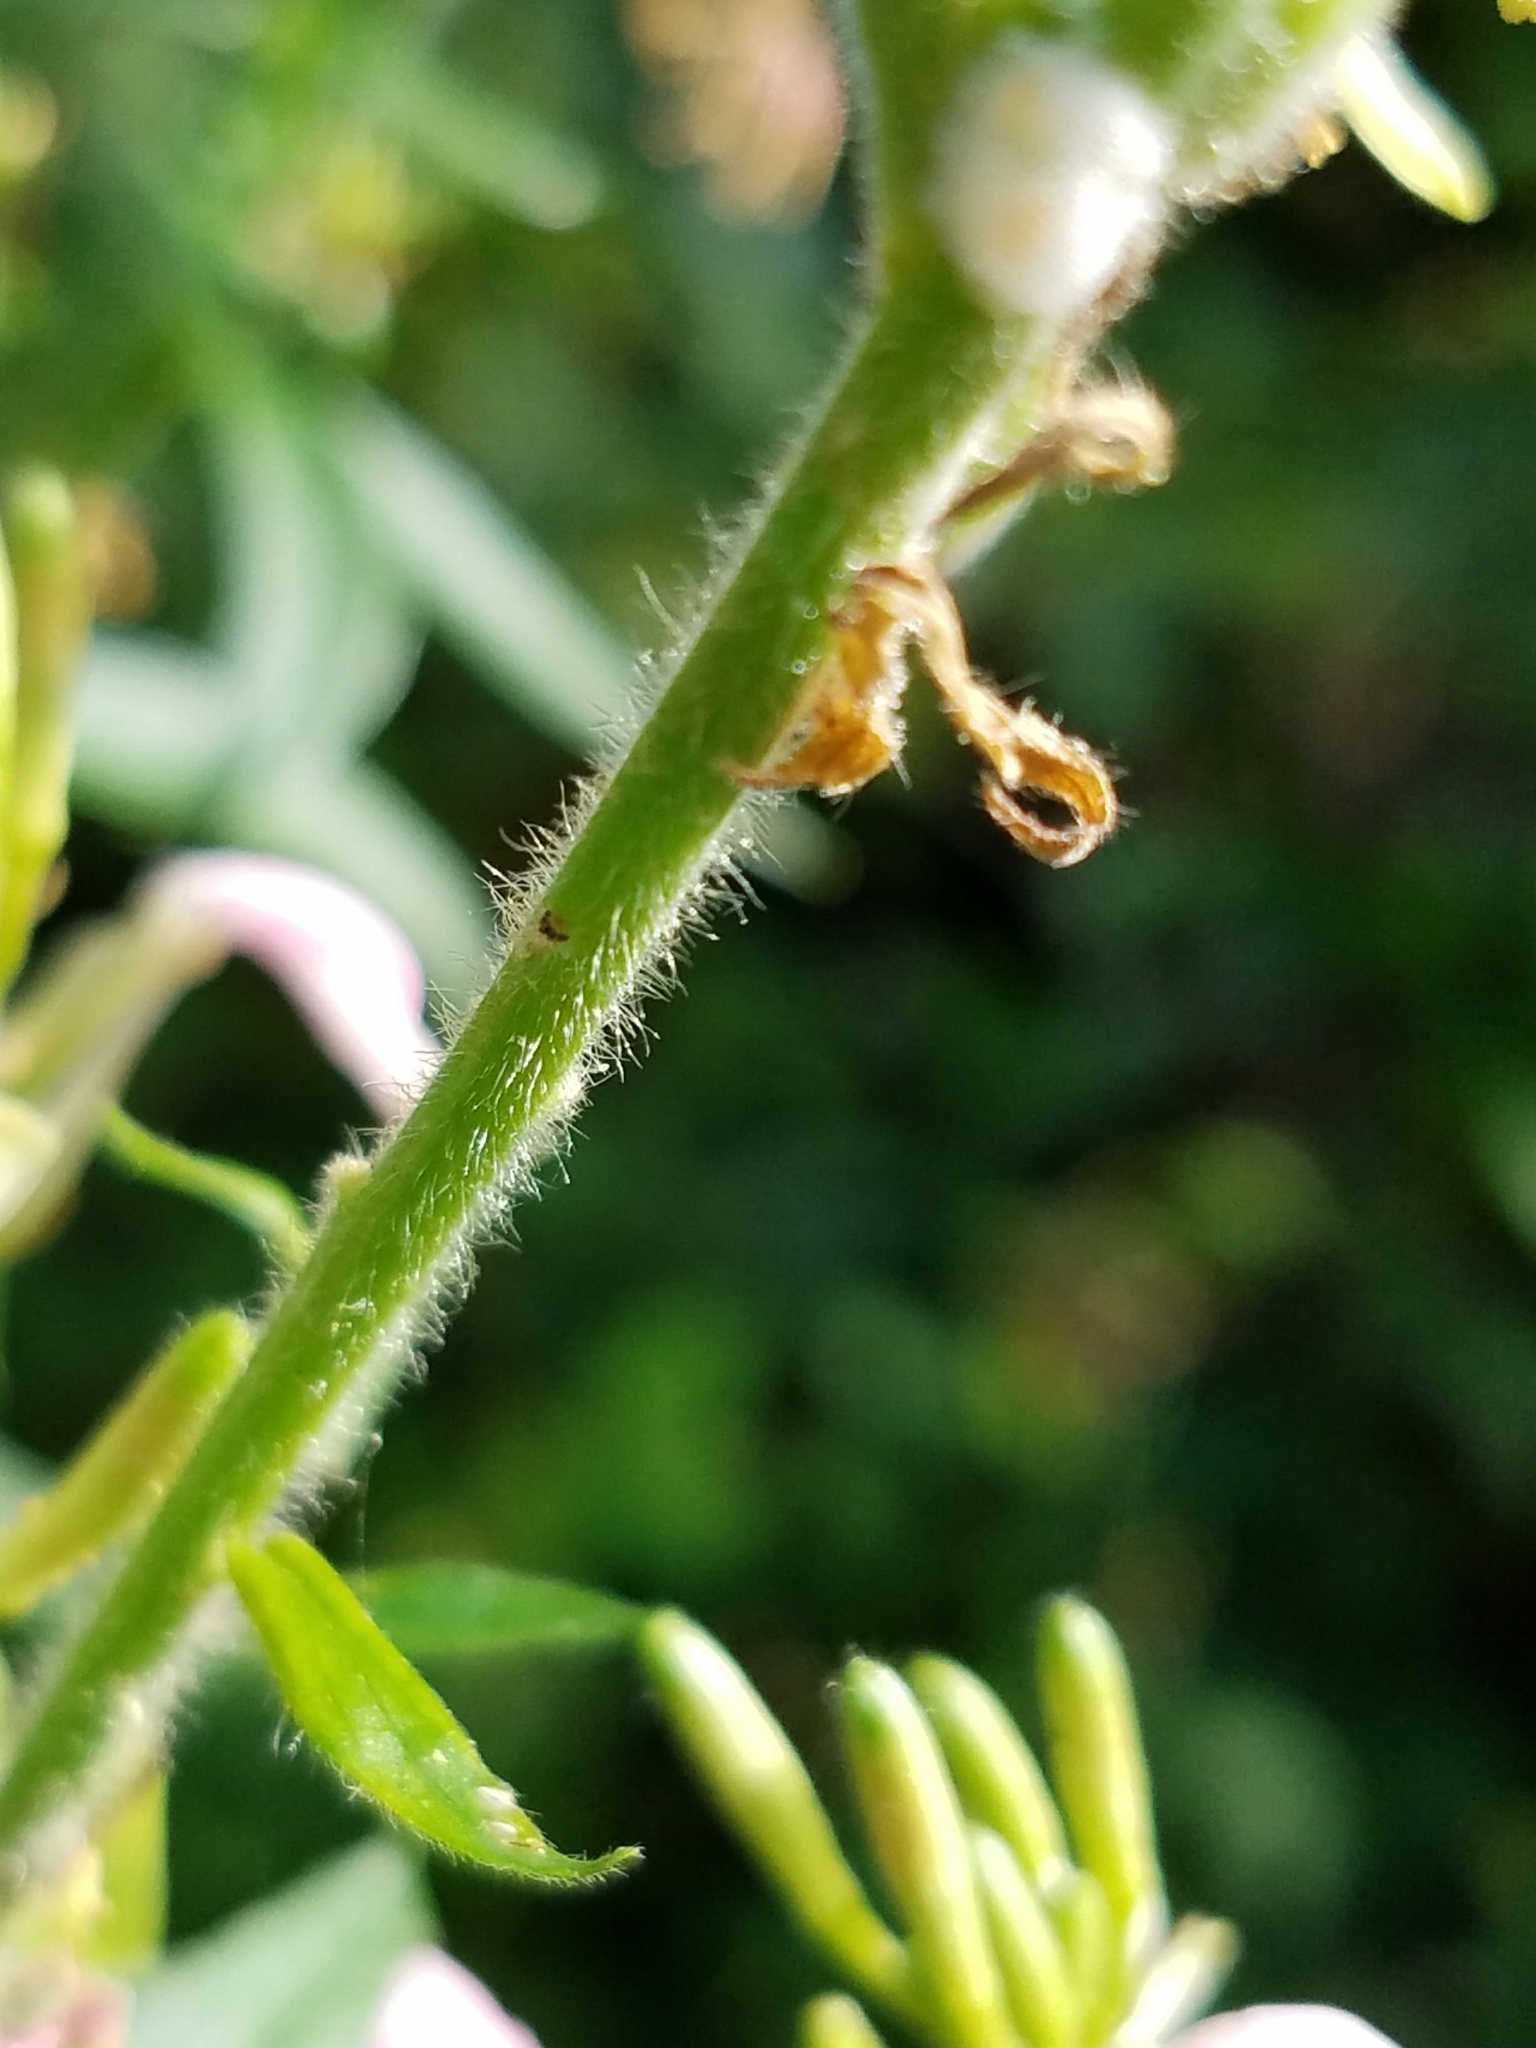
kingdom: Plantae
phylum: Tracheophyta
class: Magnoliopsida
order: Myrtales
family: Onagraceae
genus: Oenothera
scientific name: Oenothera gaura
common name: Biennial beeblossom
